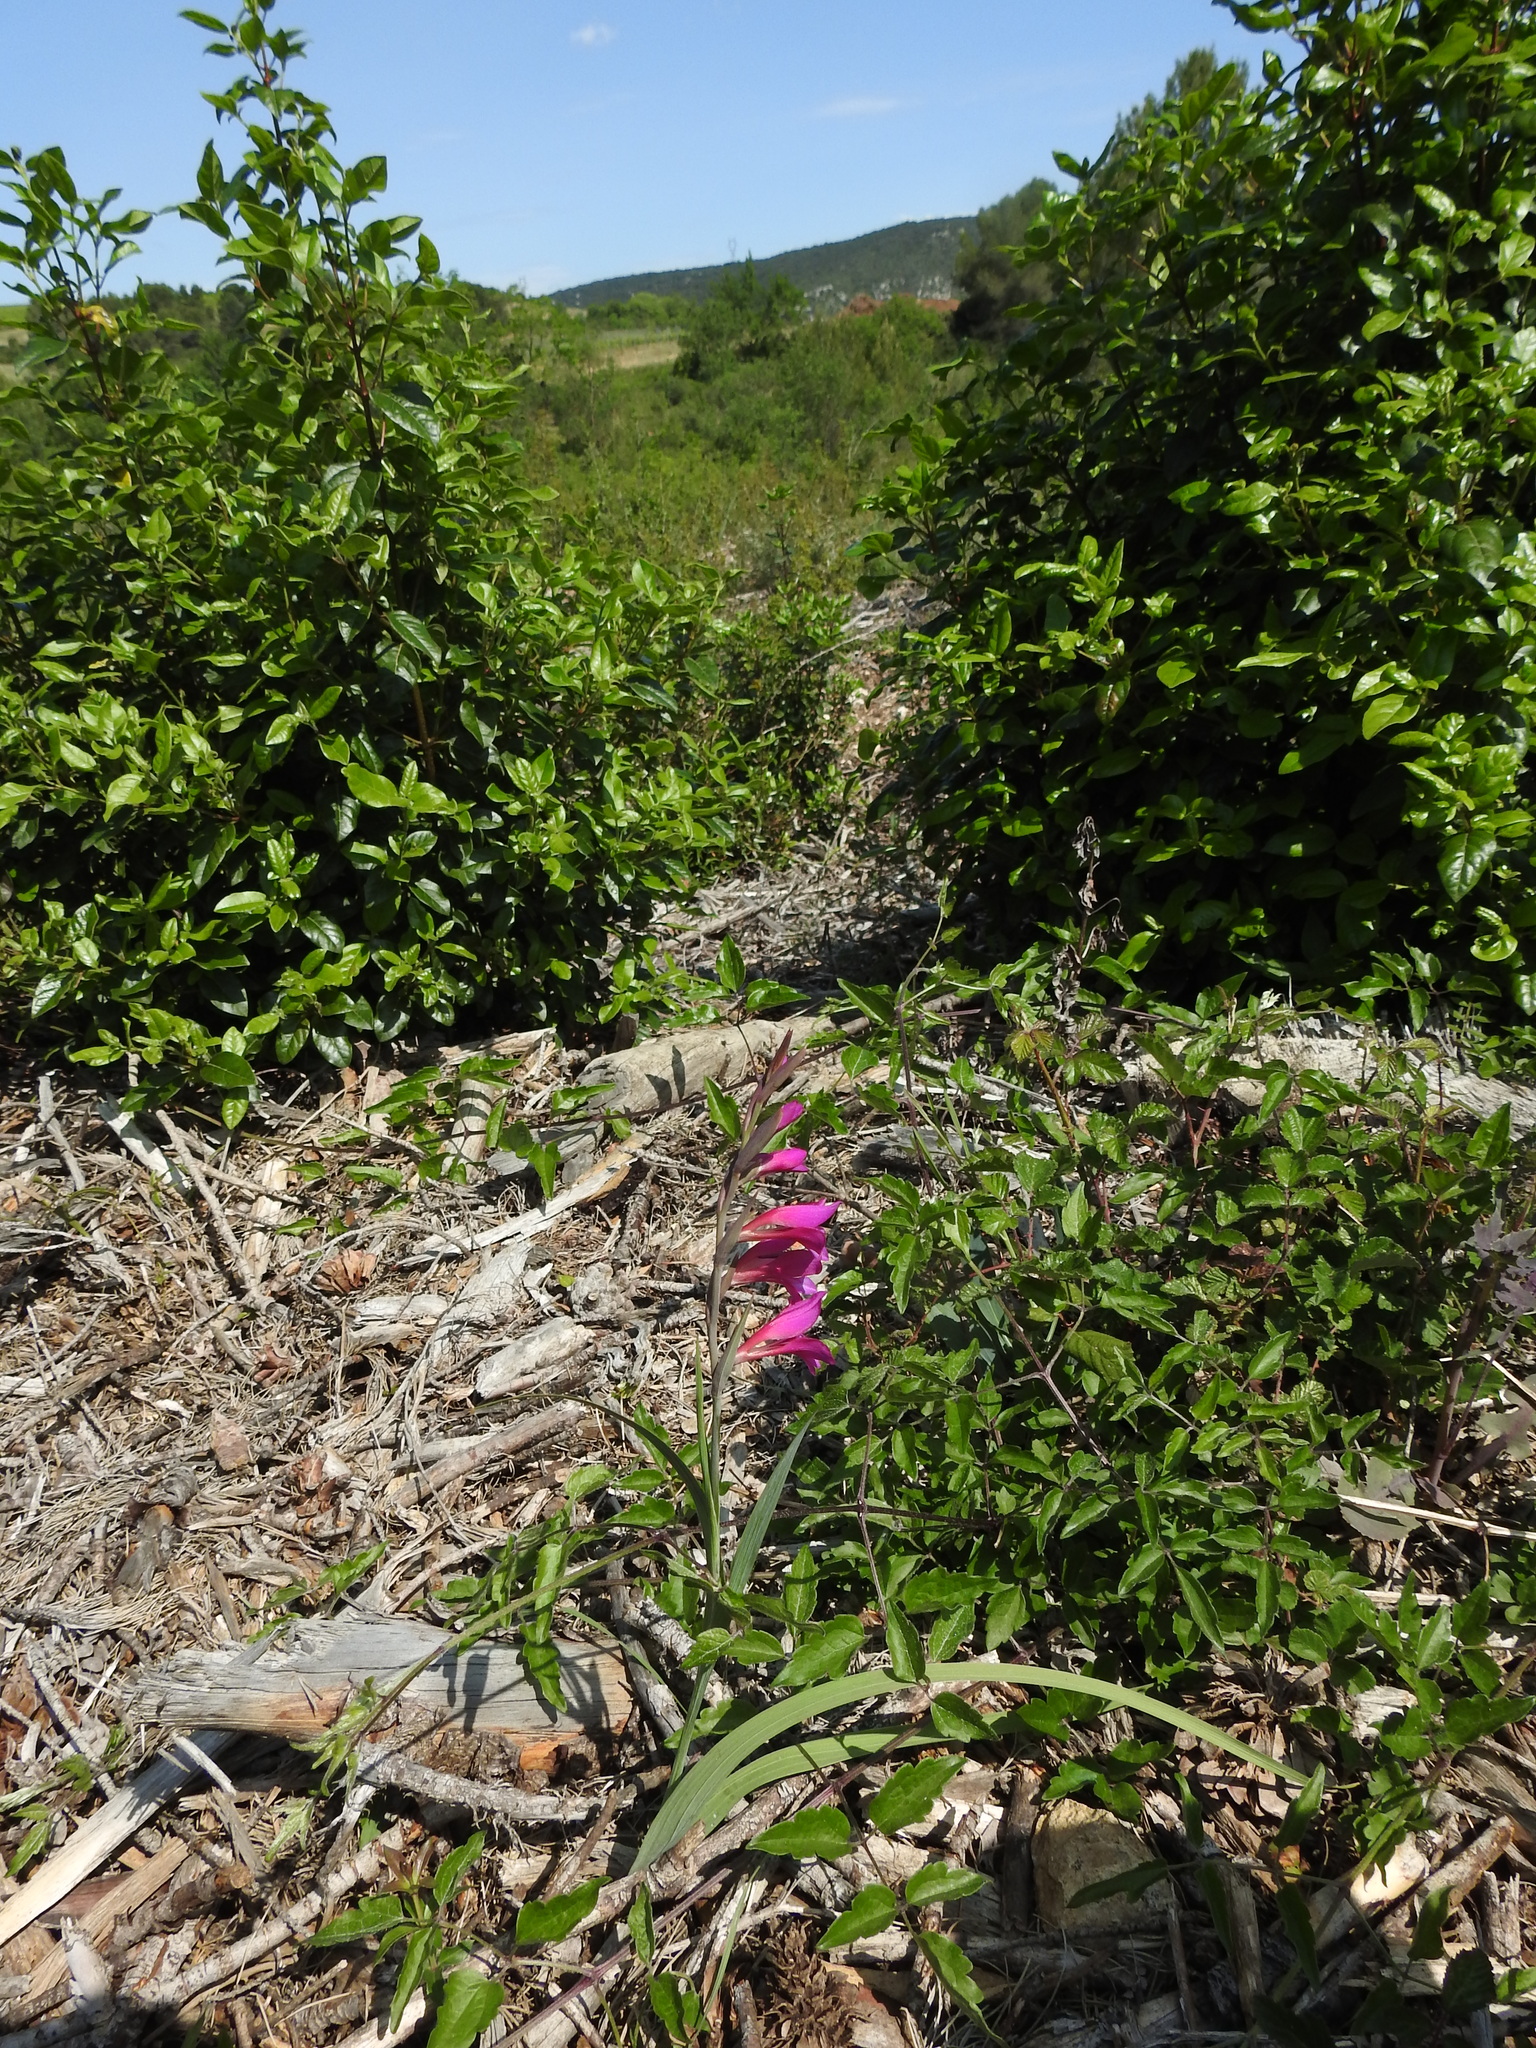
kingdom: Plantae
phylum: Tracheophyta
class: Liliopsida
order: Asparagales
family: Iridaceae
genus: Gladiolus
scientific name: Gladiolus dubius
